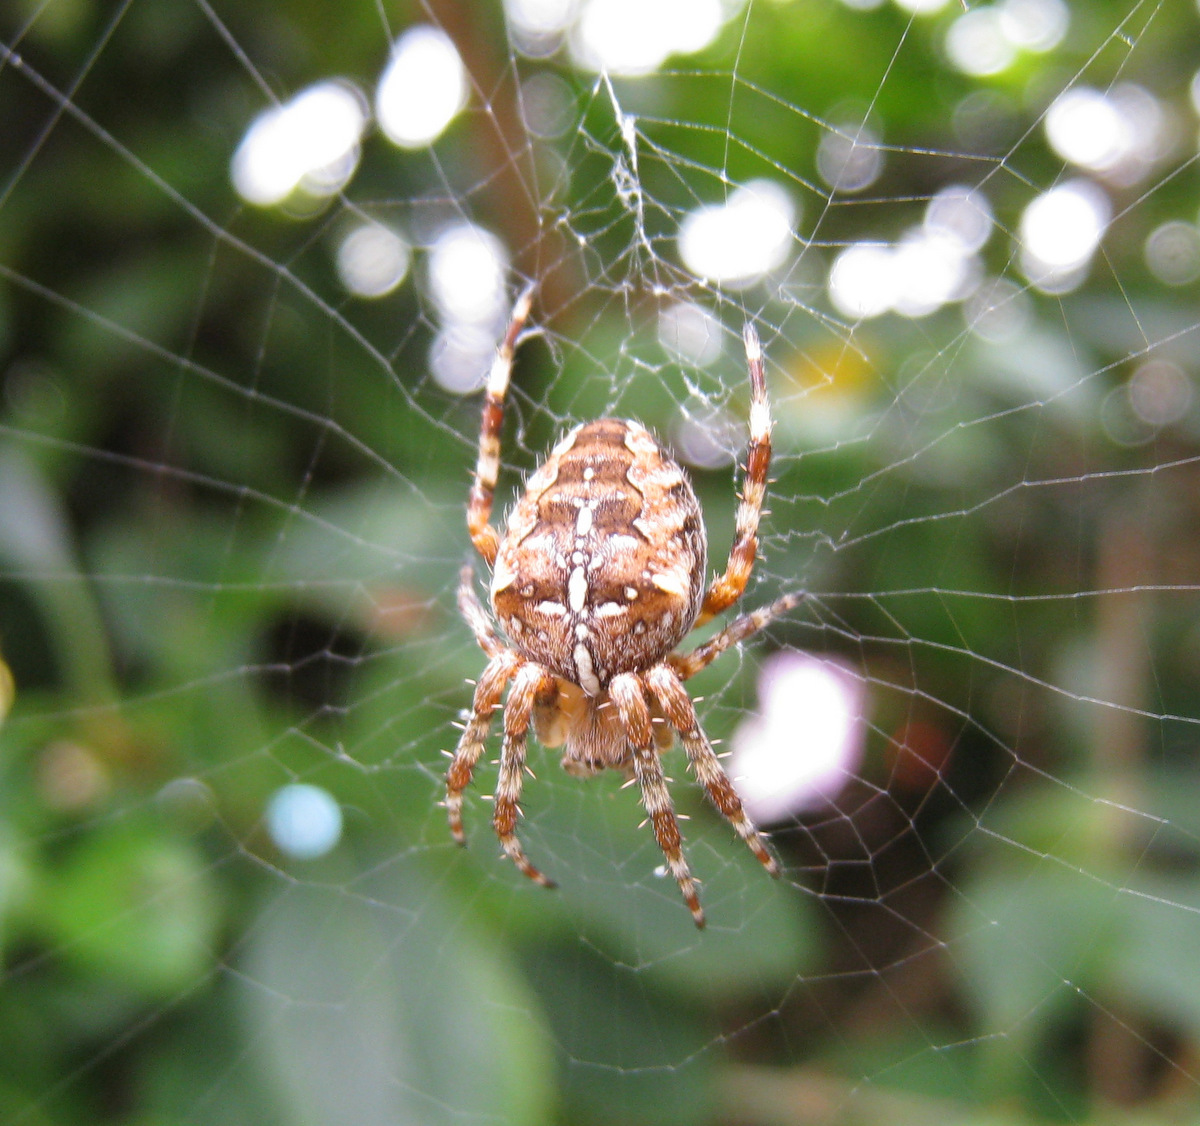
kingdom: Animalia
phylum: Arthropoda
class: Arachnida
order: Araneae
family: Araneidae
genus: Araneus
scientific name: Araneus diadematus
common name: Cross orbweaver
